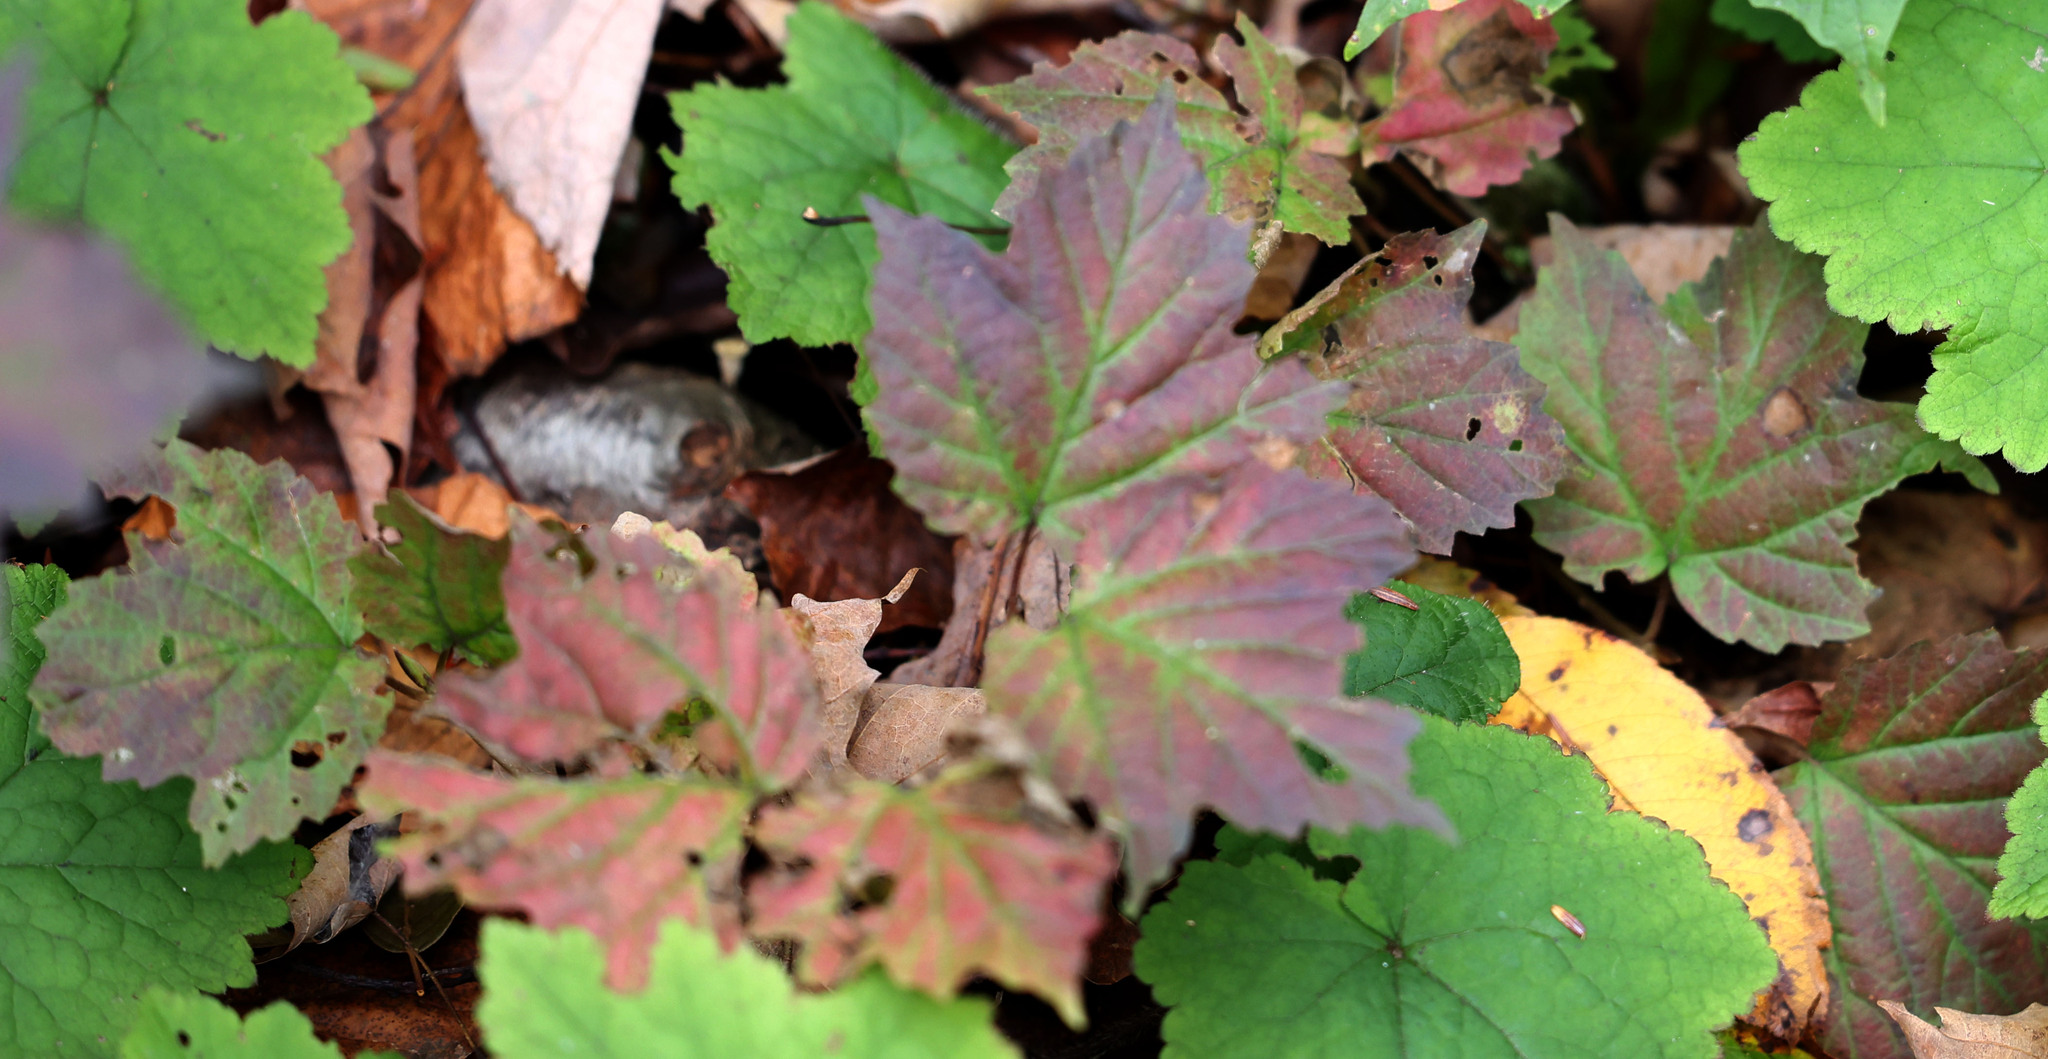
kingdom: Plantae
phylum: Tracheophyta
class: Magnoliopsida
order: Dipsacales
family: Viburnaceae
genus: Viburnum
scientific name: Viburnum acerifolium
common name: Dockmackie
